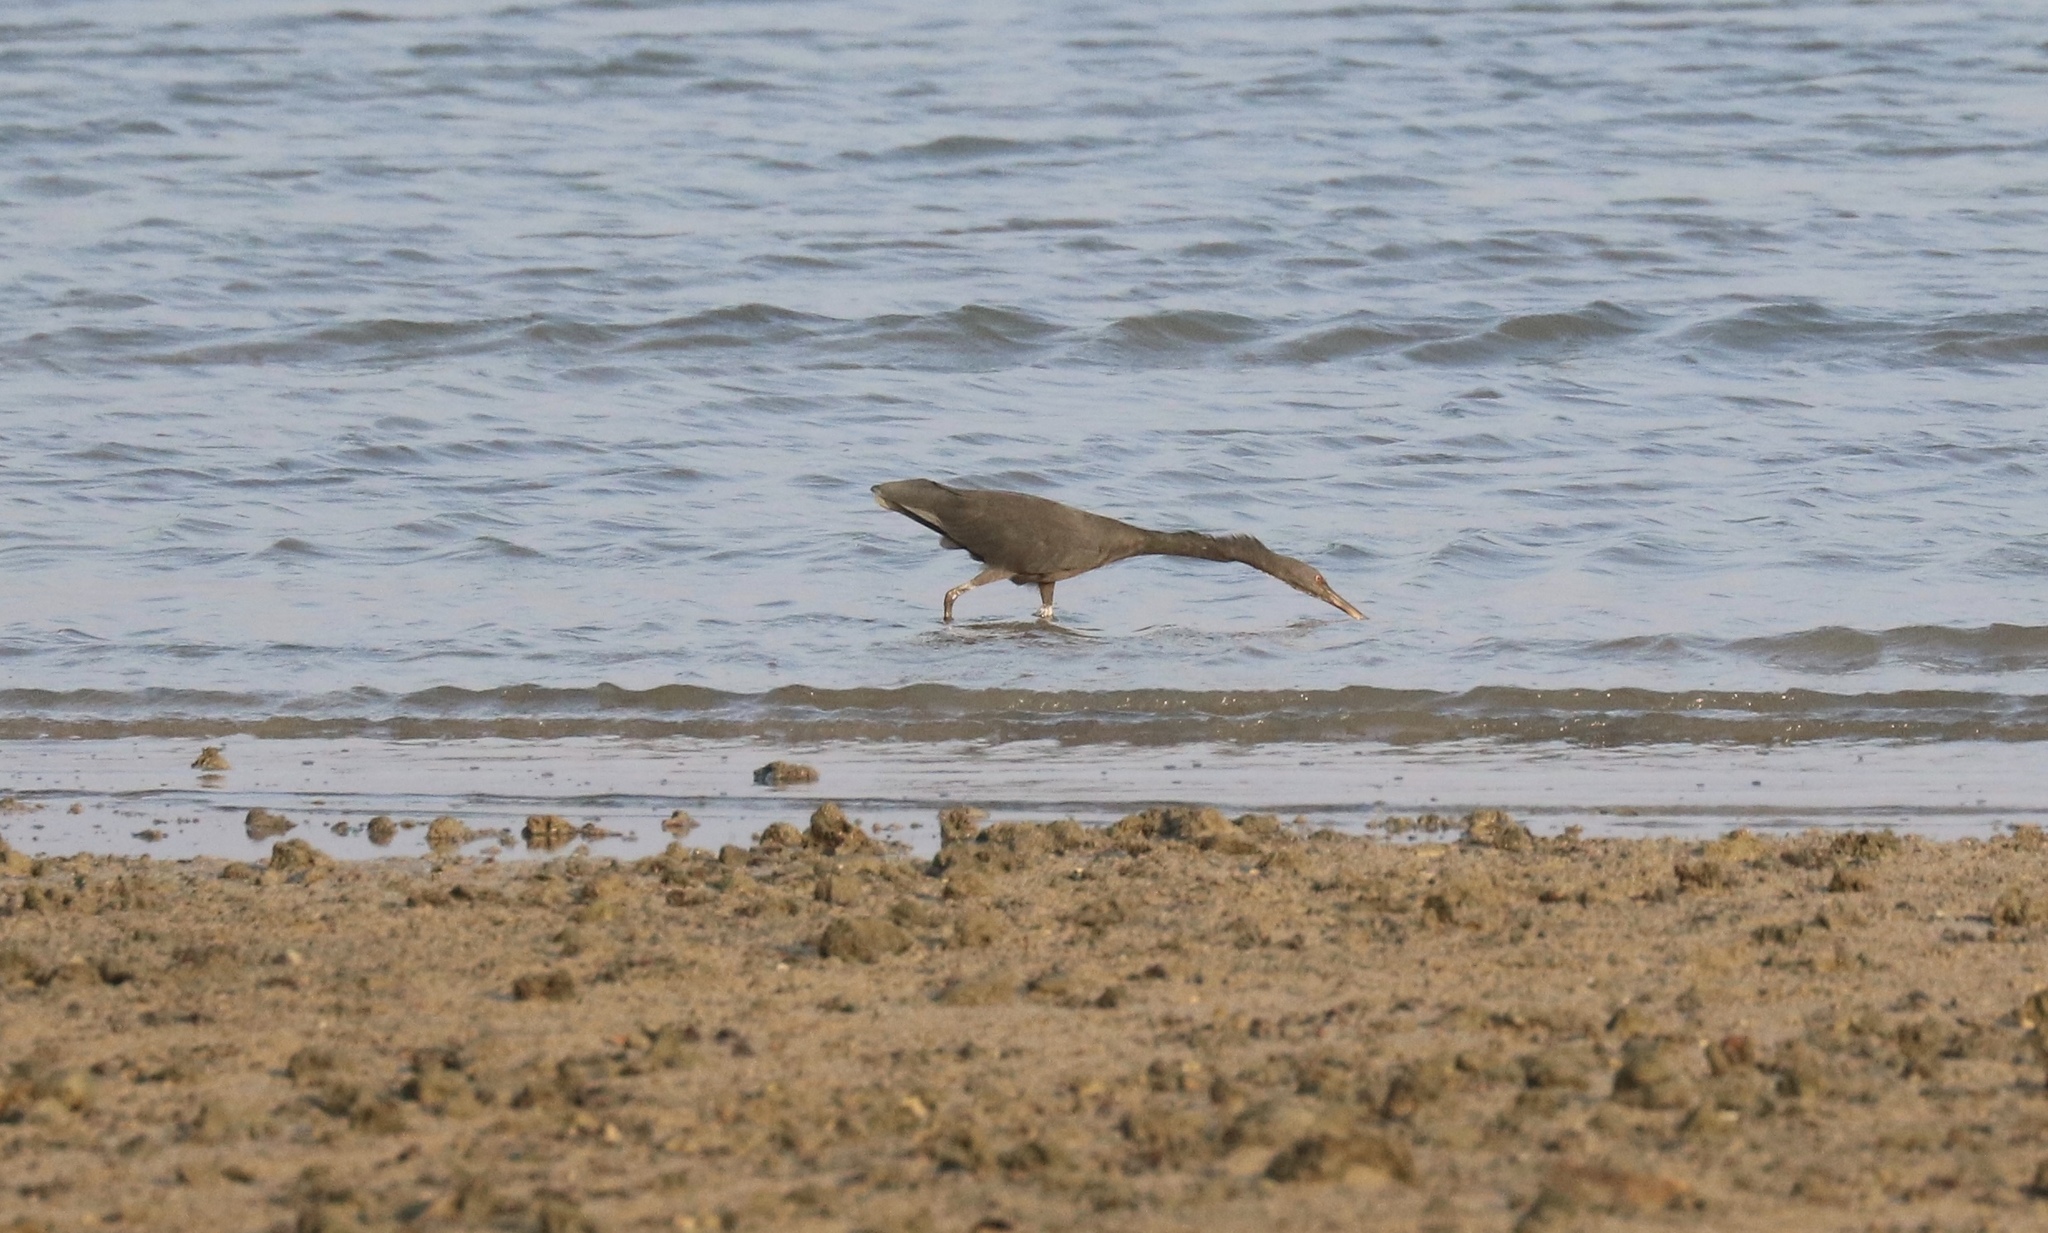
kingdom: Animalia
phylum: Chordata
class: Aves
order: Pelecaniformes
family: Ardeidae
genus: Egretta
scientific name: Egretta sacra
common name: Pacific reef heron
